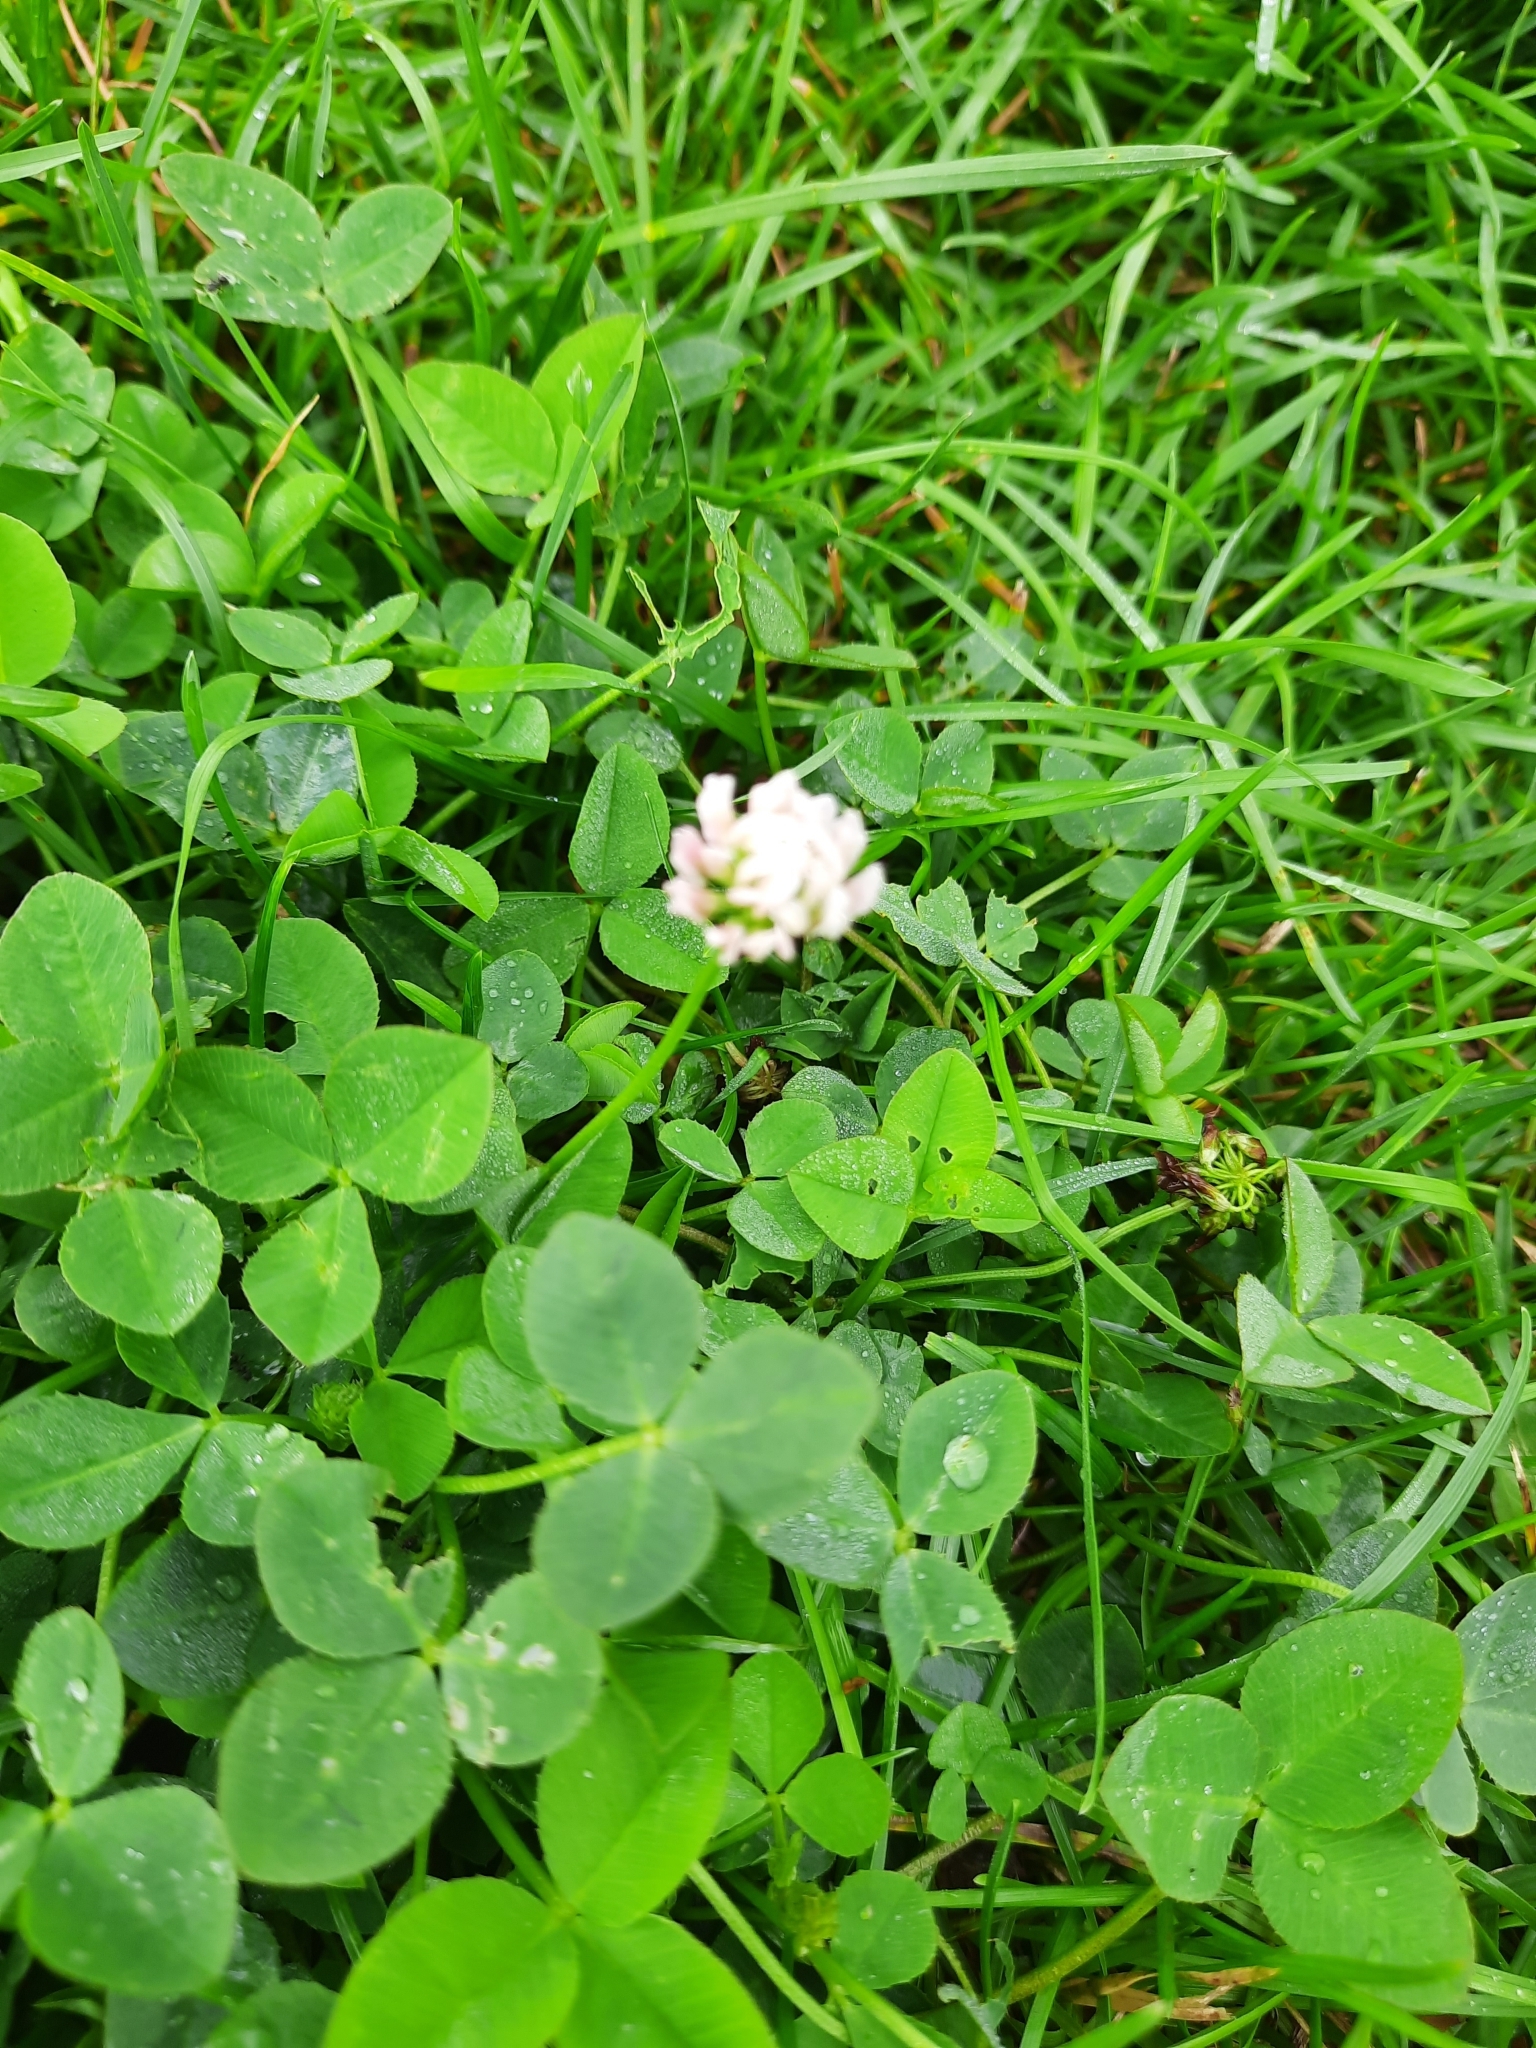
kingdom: Plantae
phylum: Tracheophyta
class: Magnoliopsida
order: Fabales
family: Fabaceae
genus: Trifolium
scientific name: Trifolium repens
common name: White clover
